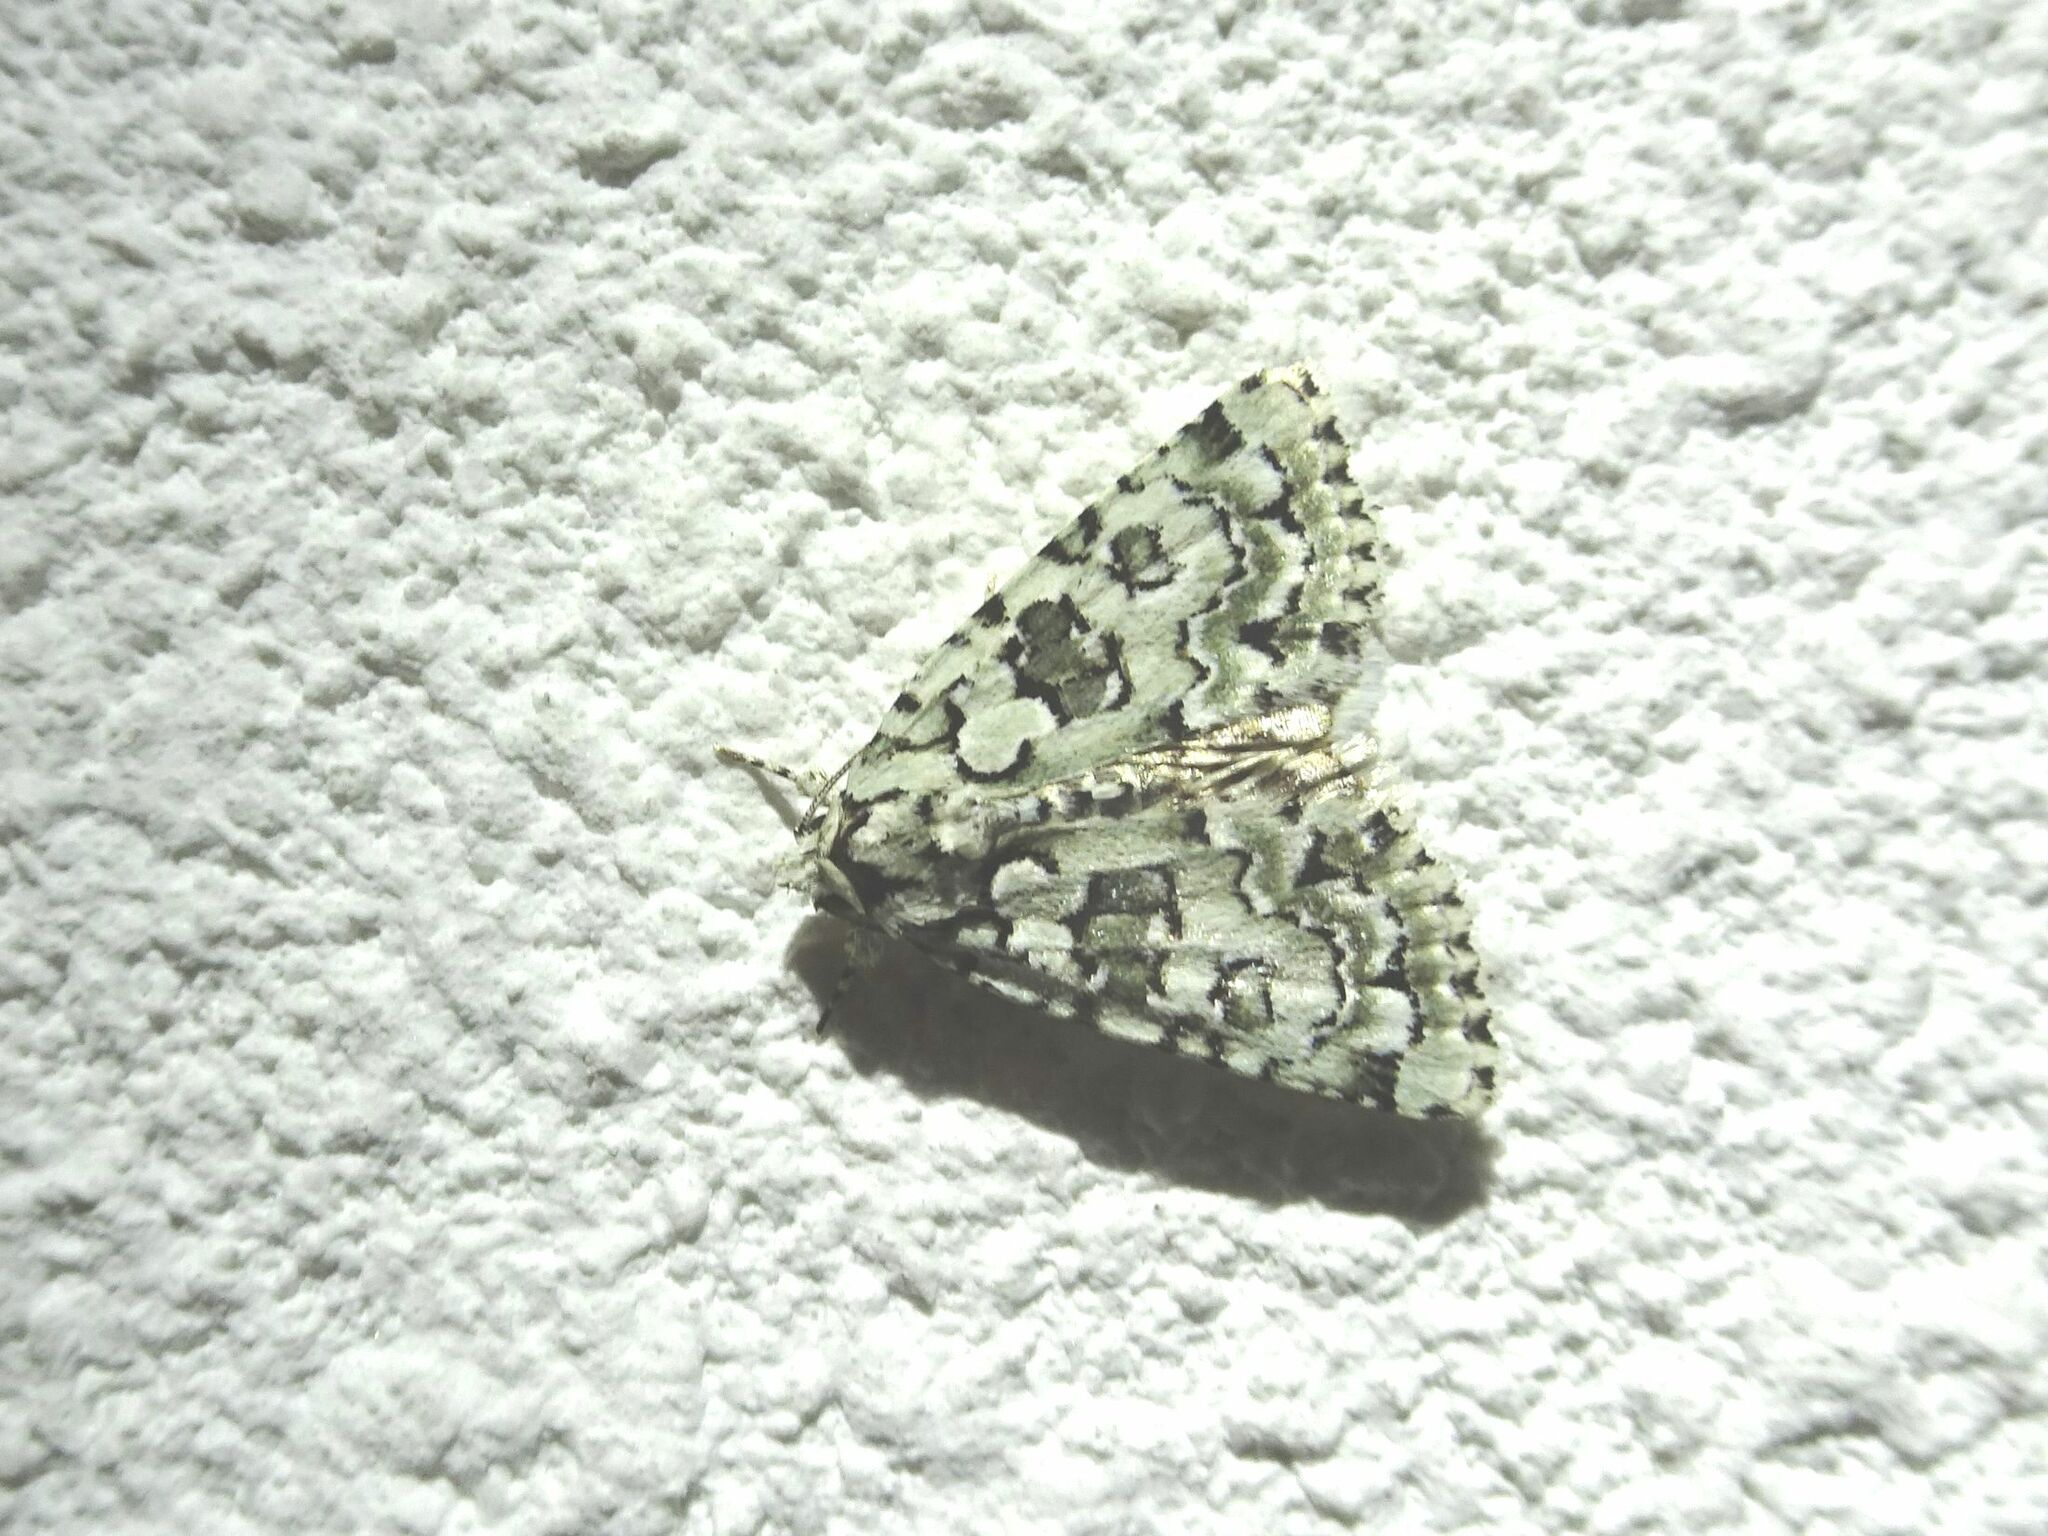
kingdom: Animalia
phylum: Arthropoda
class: Insecta
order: Lepidoptera
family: Noctuidae
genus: Nyctobrya
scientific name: Nyctobrya muralis
